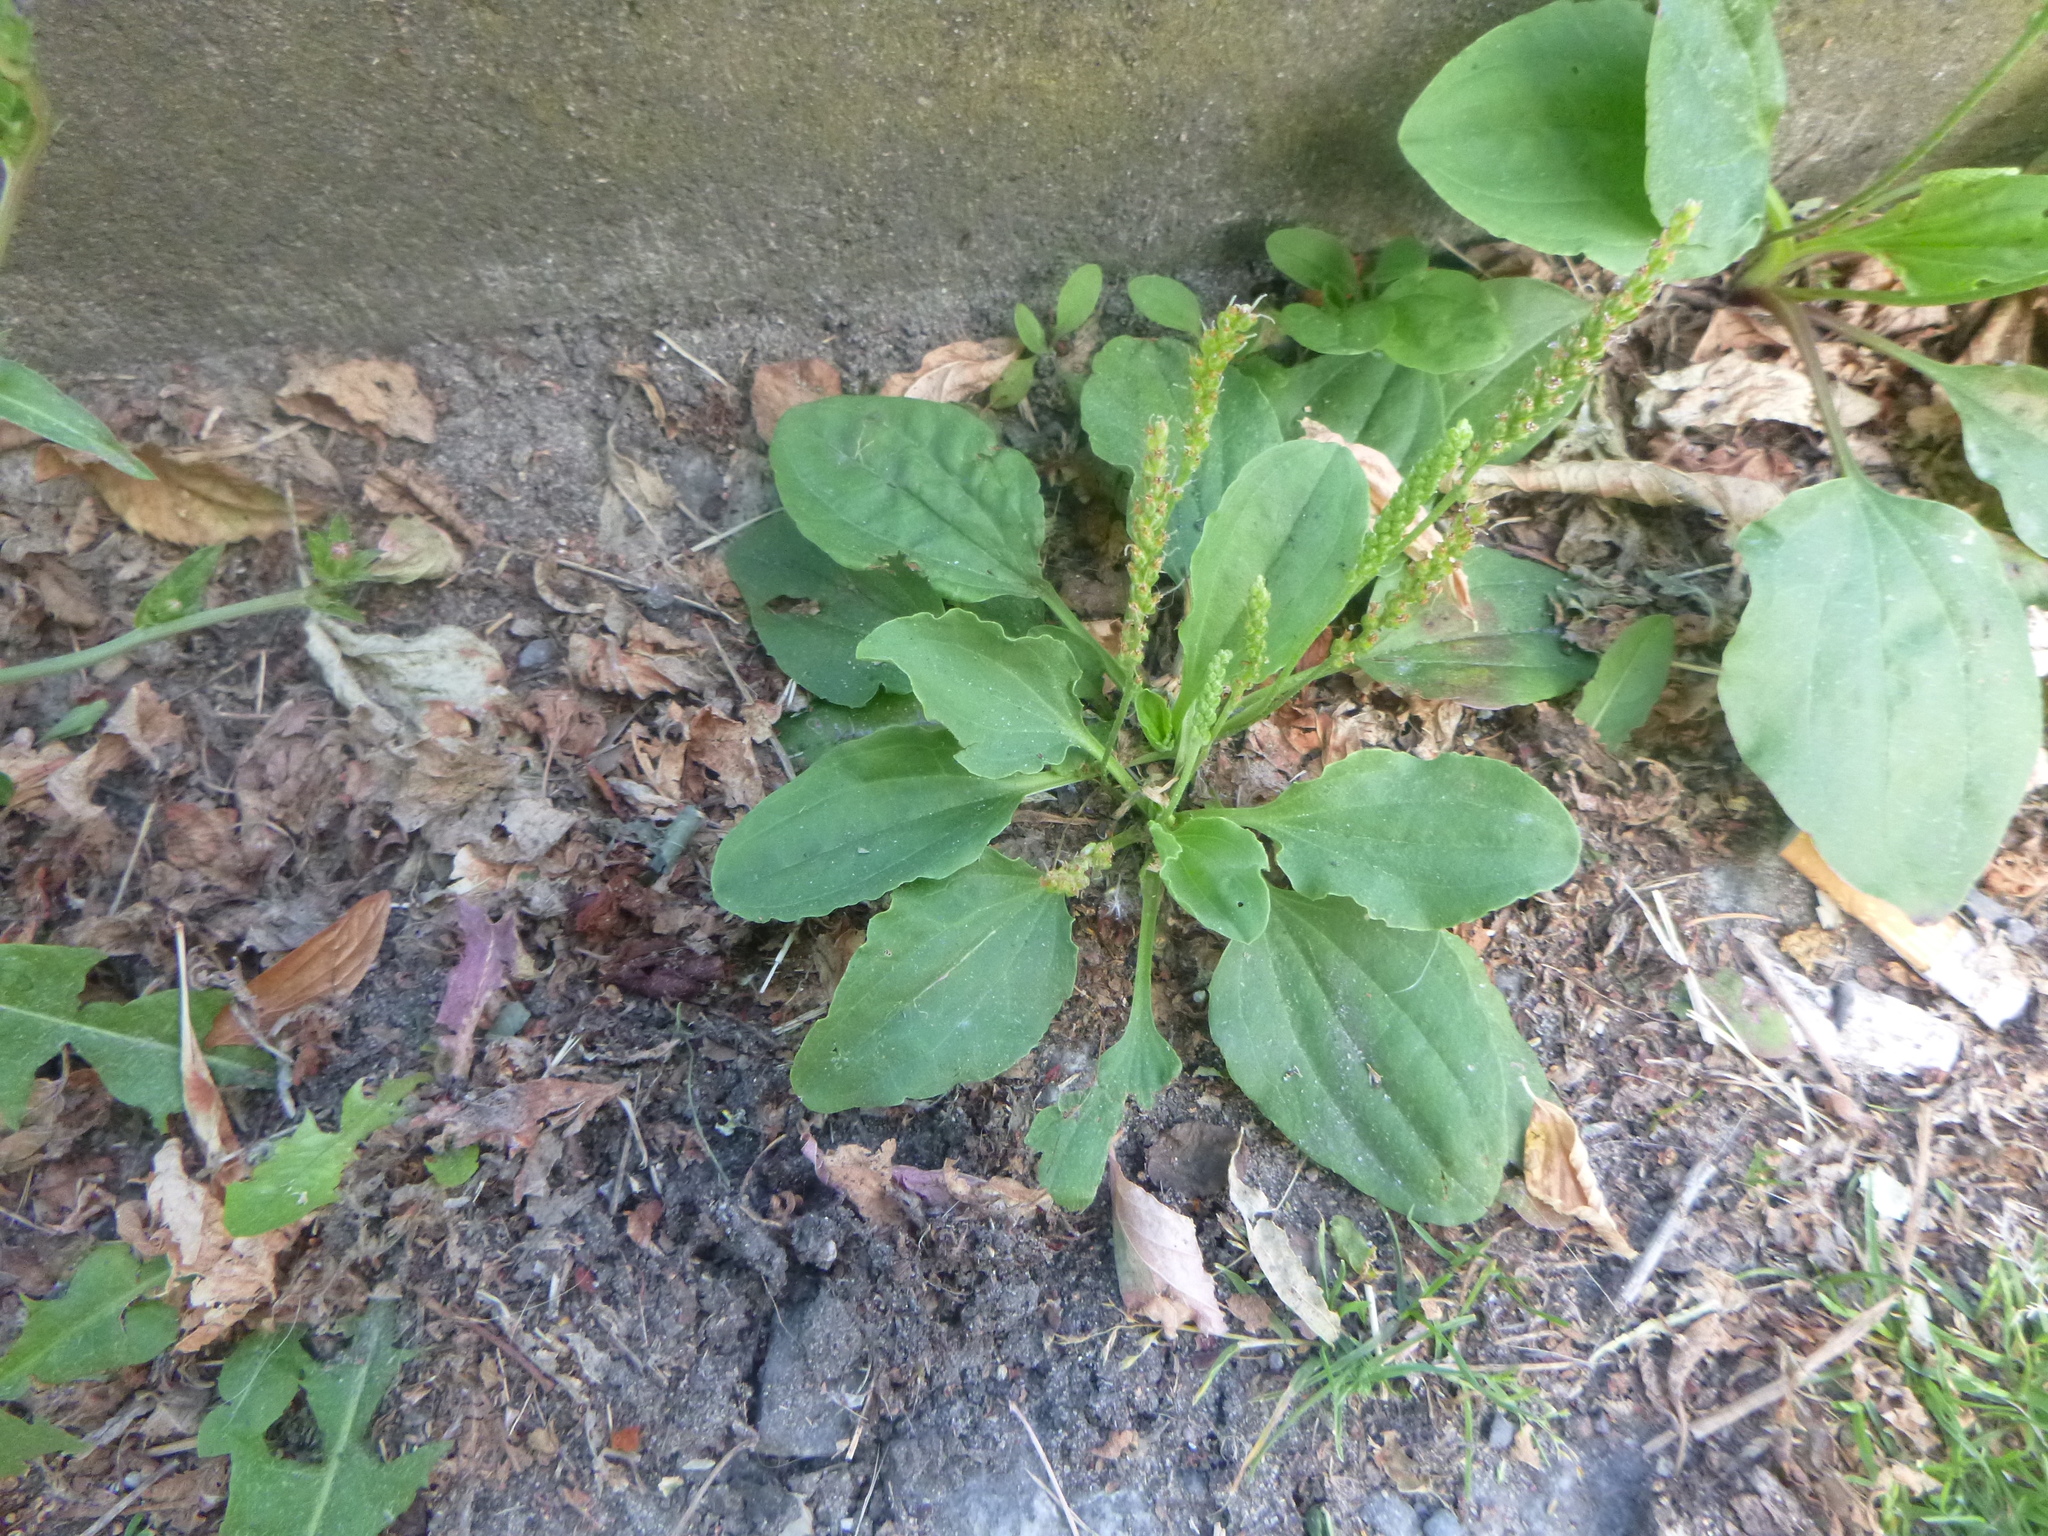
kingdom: Plantae
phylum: Tracheophyta
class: Magnoliopsida
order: Lamiales
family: Plantaginaceae
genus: Plantago
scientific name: Plantago major
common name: Common plantain
